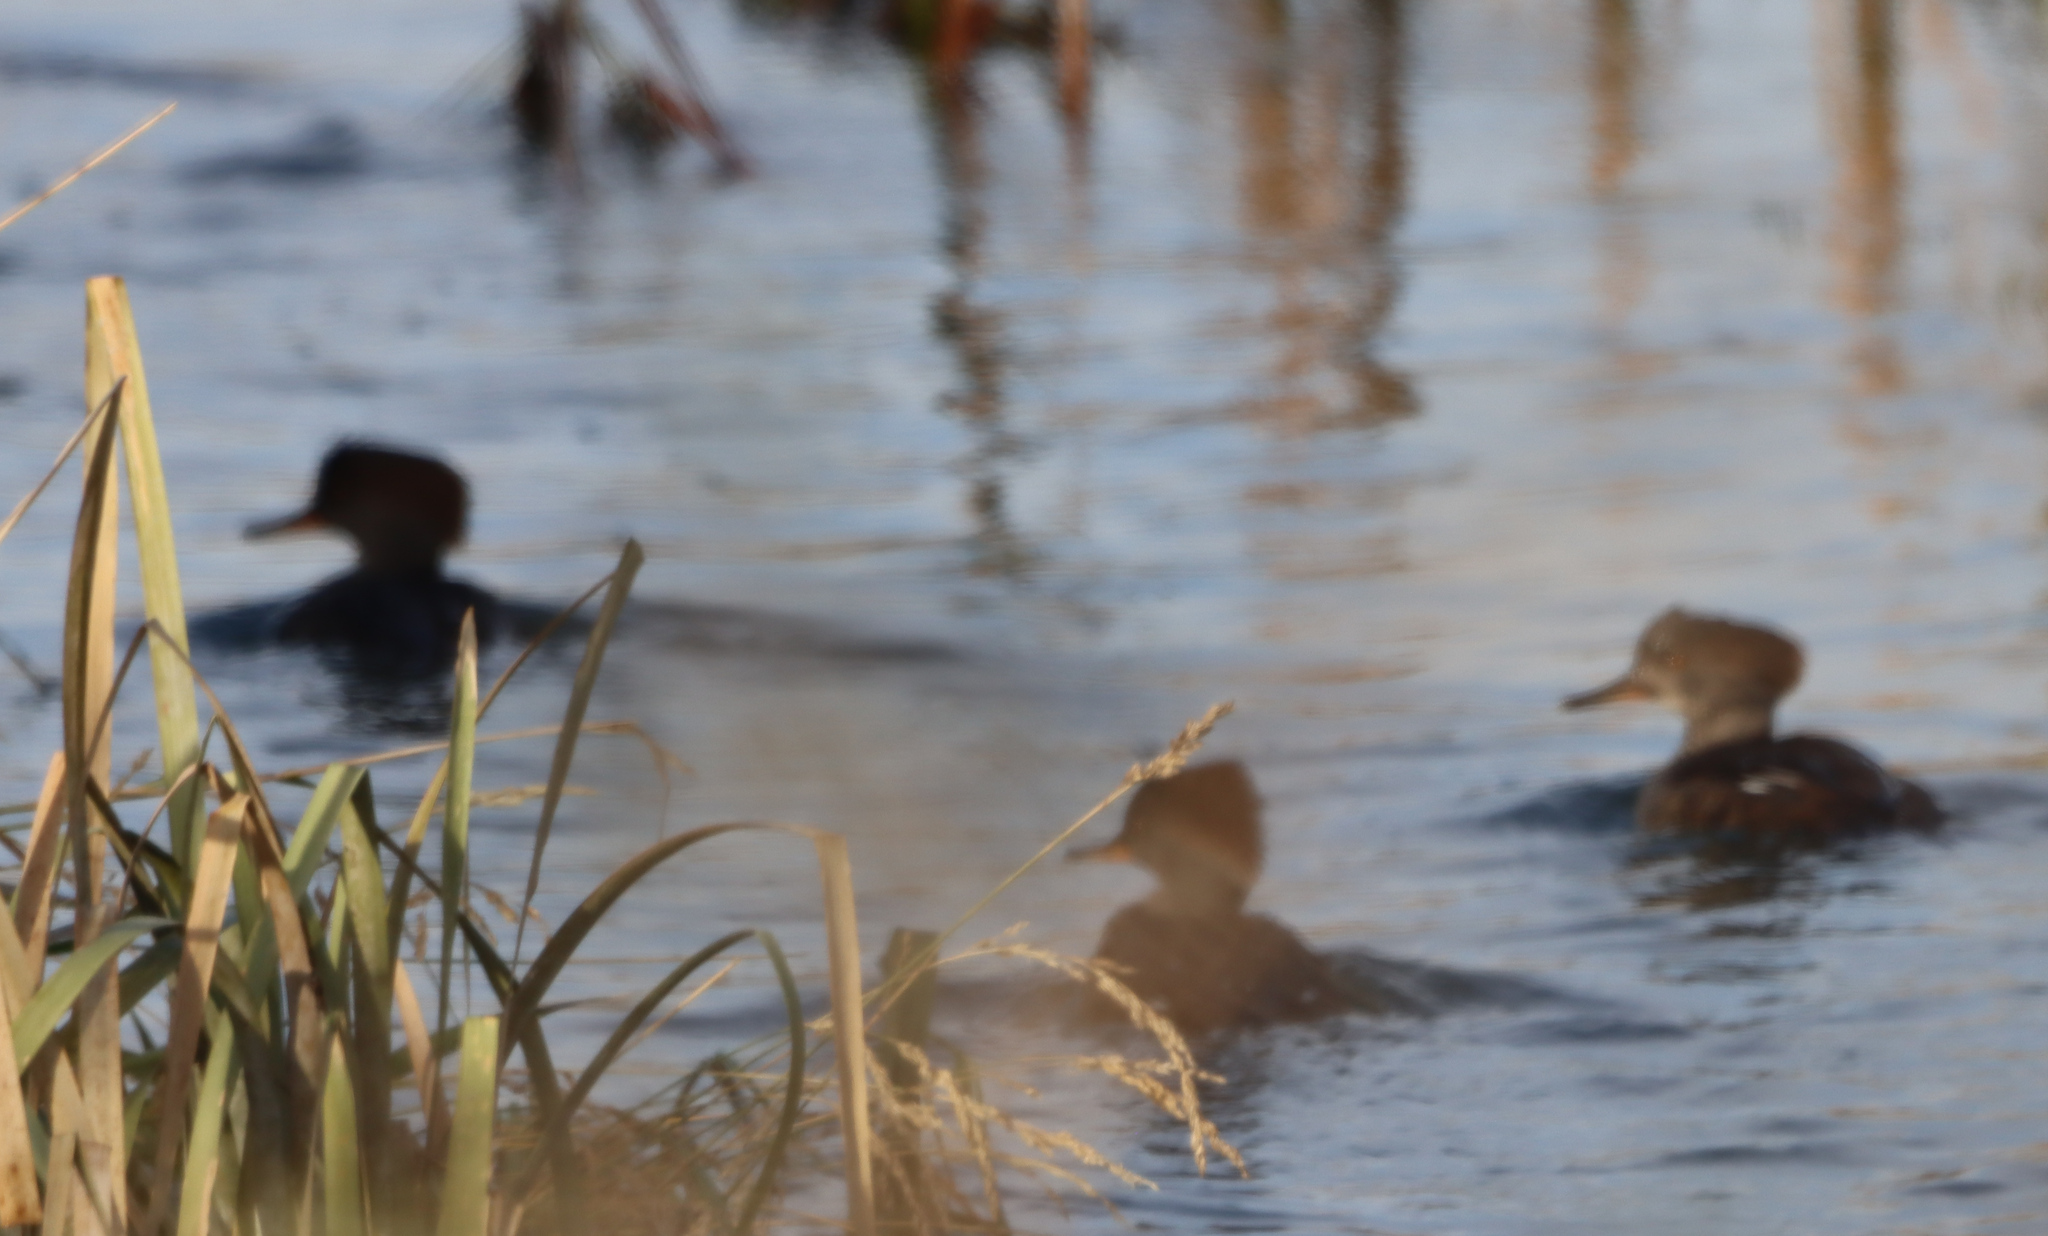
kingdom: Animalia
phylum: Chordata
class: Aves
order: Anseriformes
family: Anatidae
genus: Lophodytes
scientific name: Lophodytes cucullatus
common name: Hooded merganser
